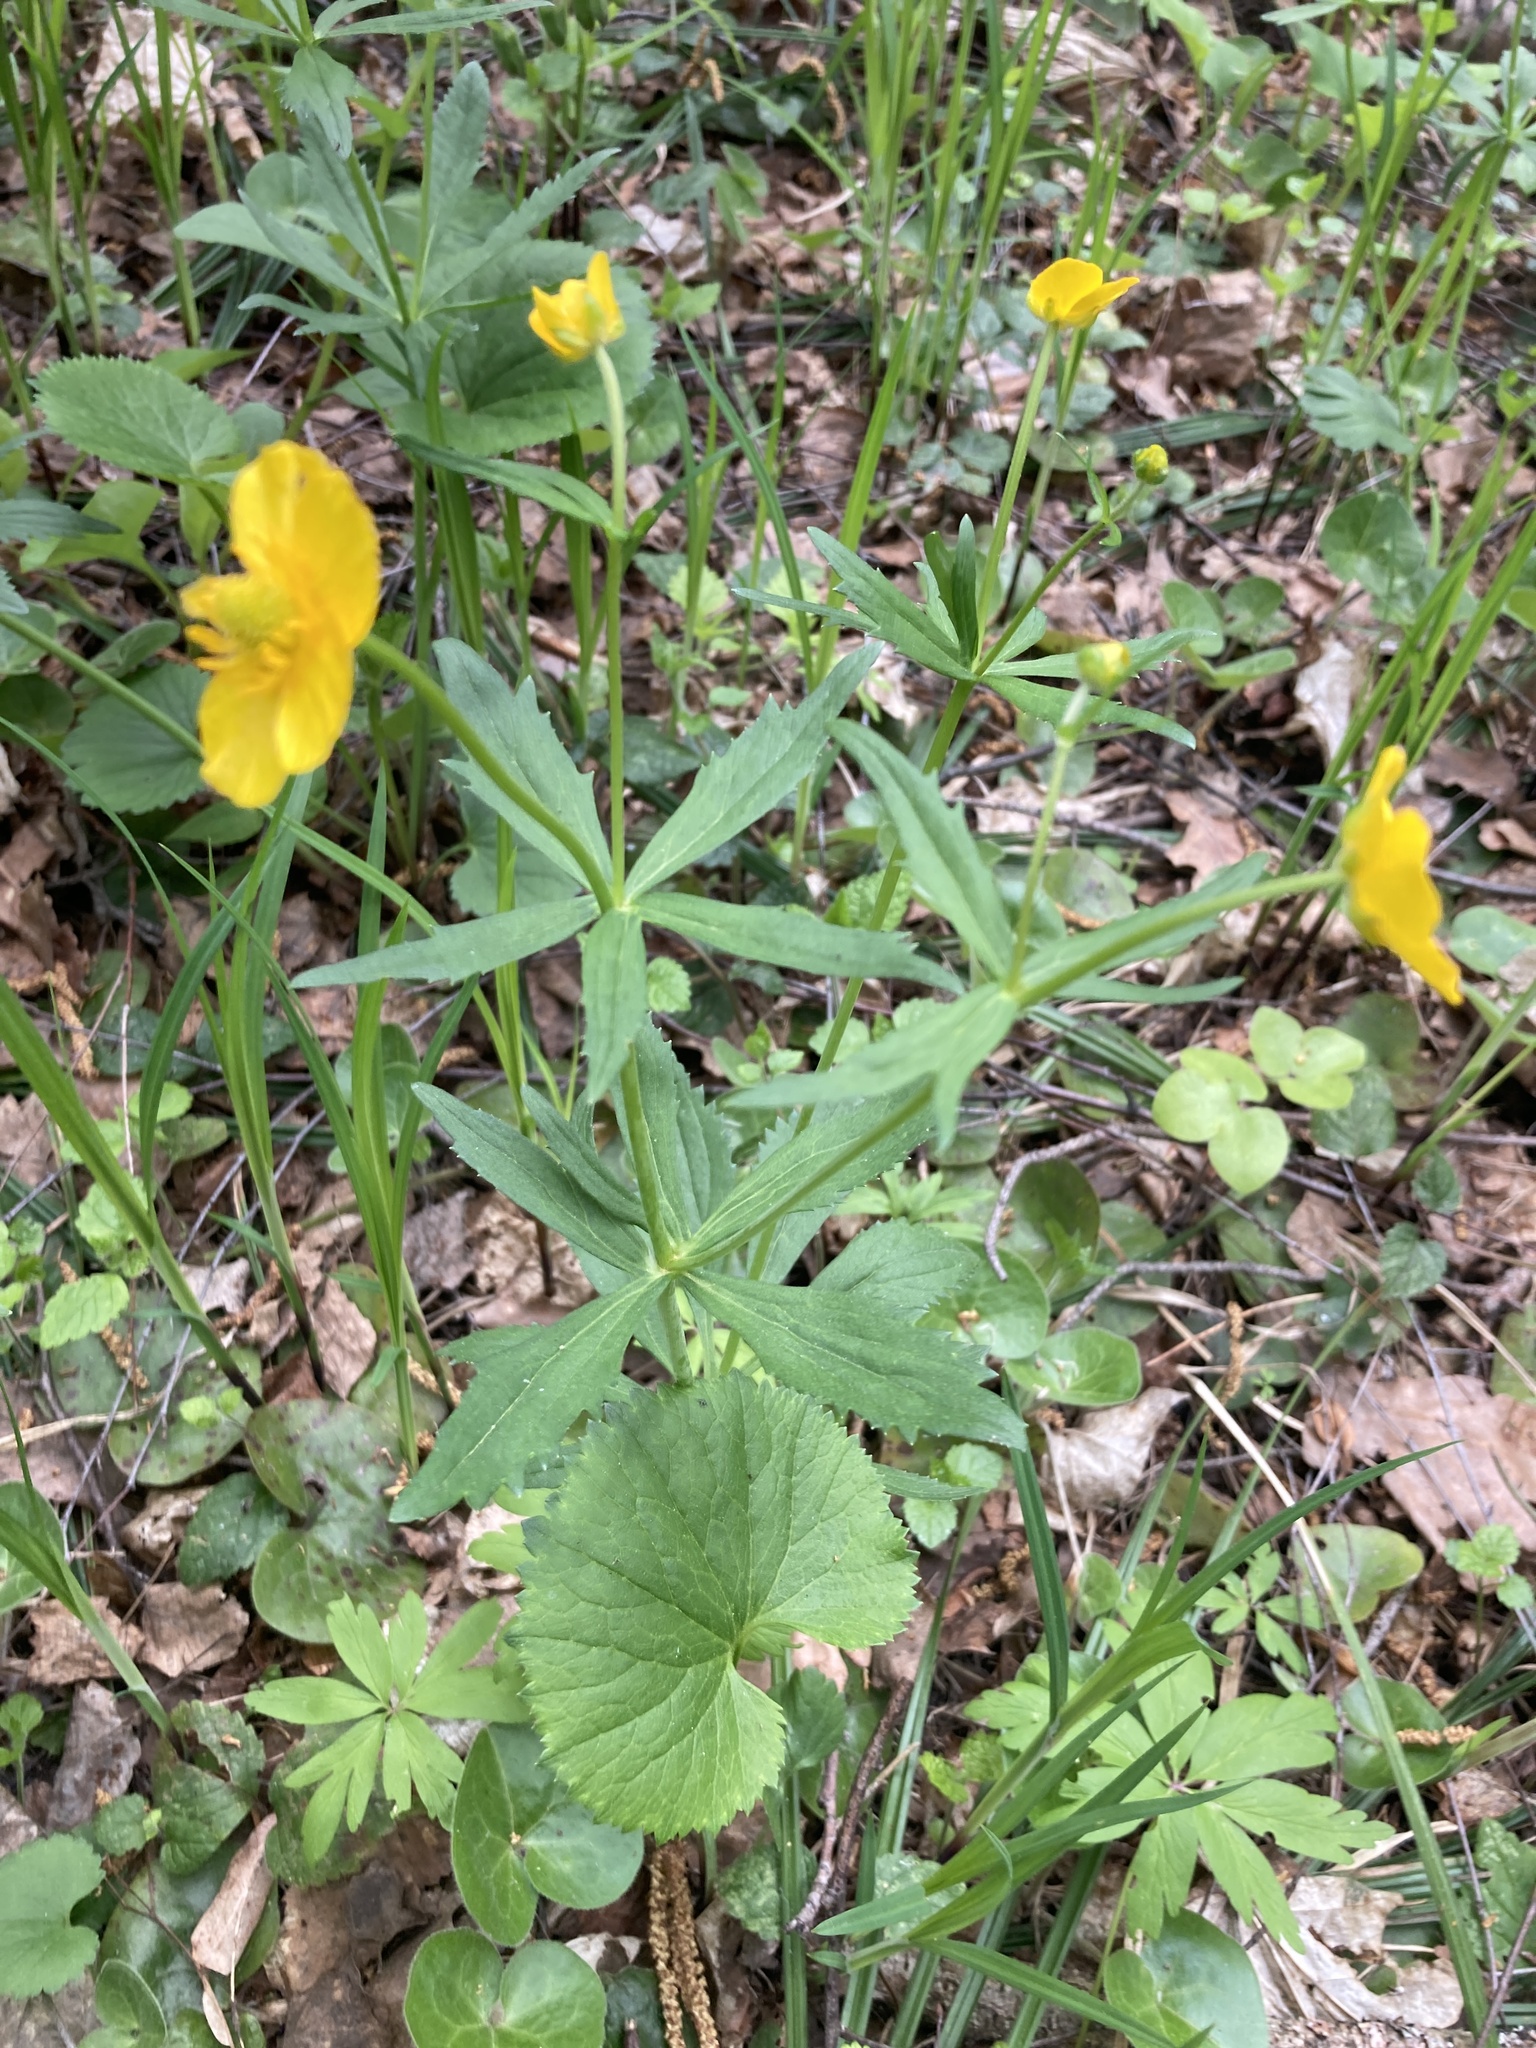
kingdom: Plantae
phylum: Tracheophyta
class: Magnoliopsida
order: Ranunculales
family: Ranunculaceae
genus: Ranunculus
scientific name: Ranunculus cassubicus
